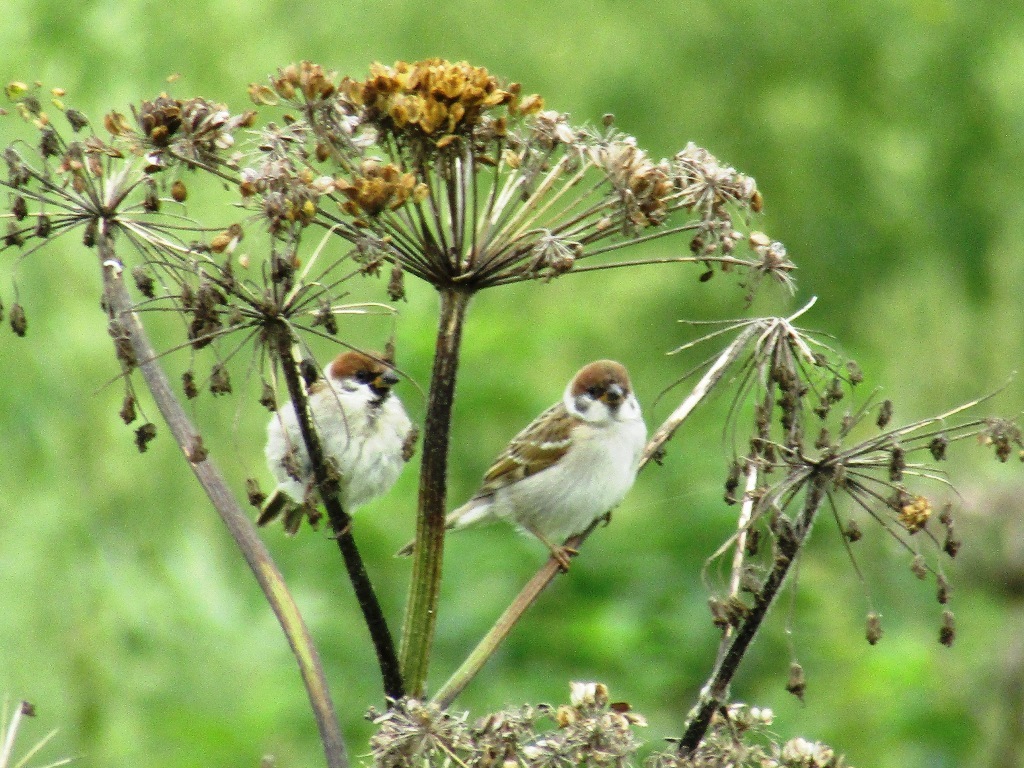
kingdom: Animalia
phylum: Chordata
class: Aves
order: Passeriformes
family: Passeridae
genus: Passer
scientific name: Passer montanus
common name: Eurasian tree sparrow
